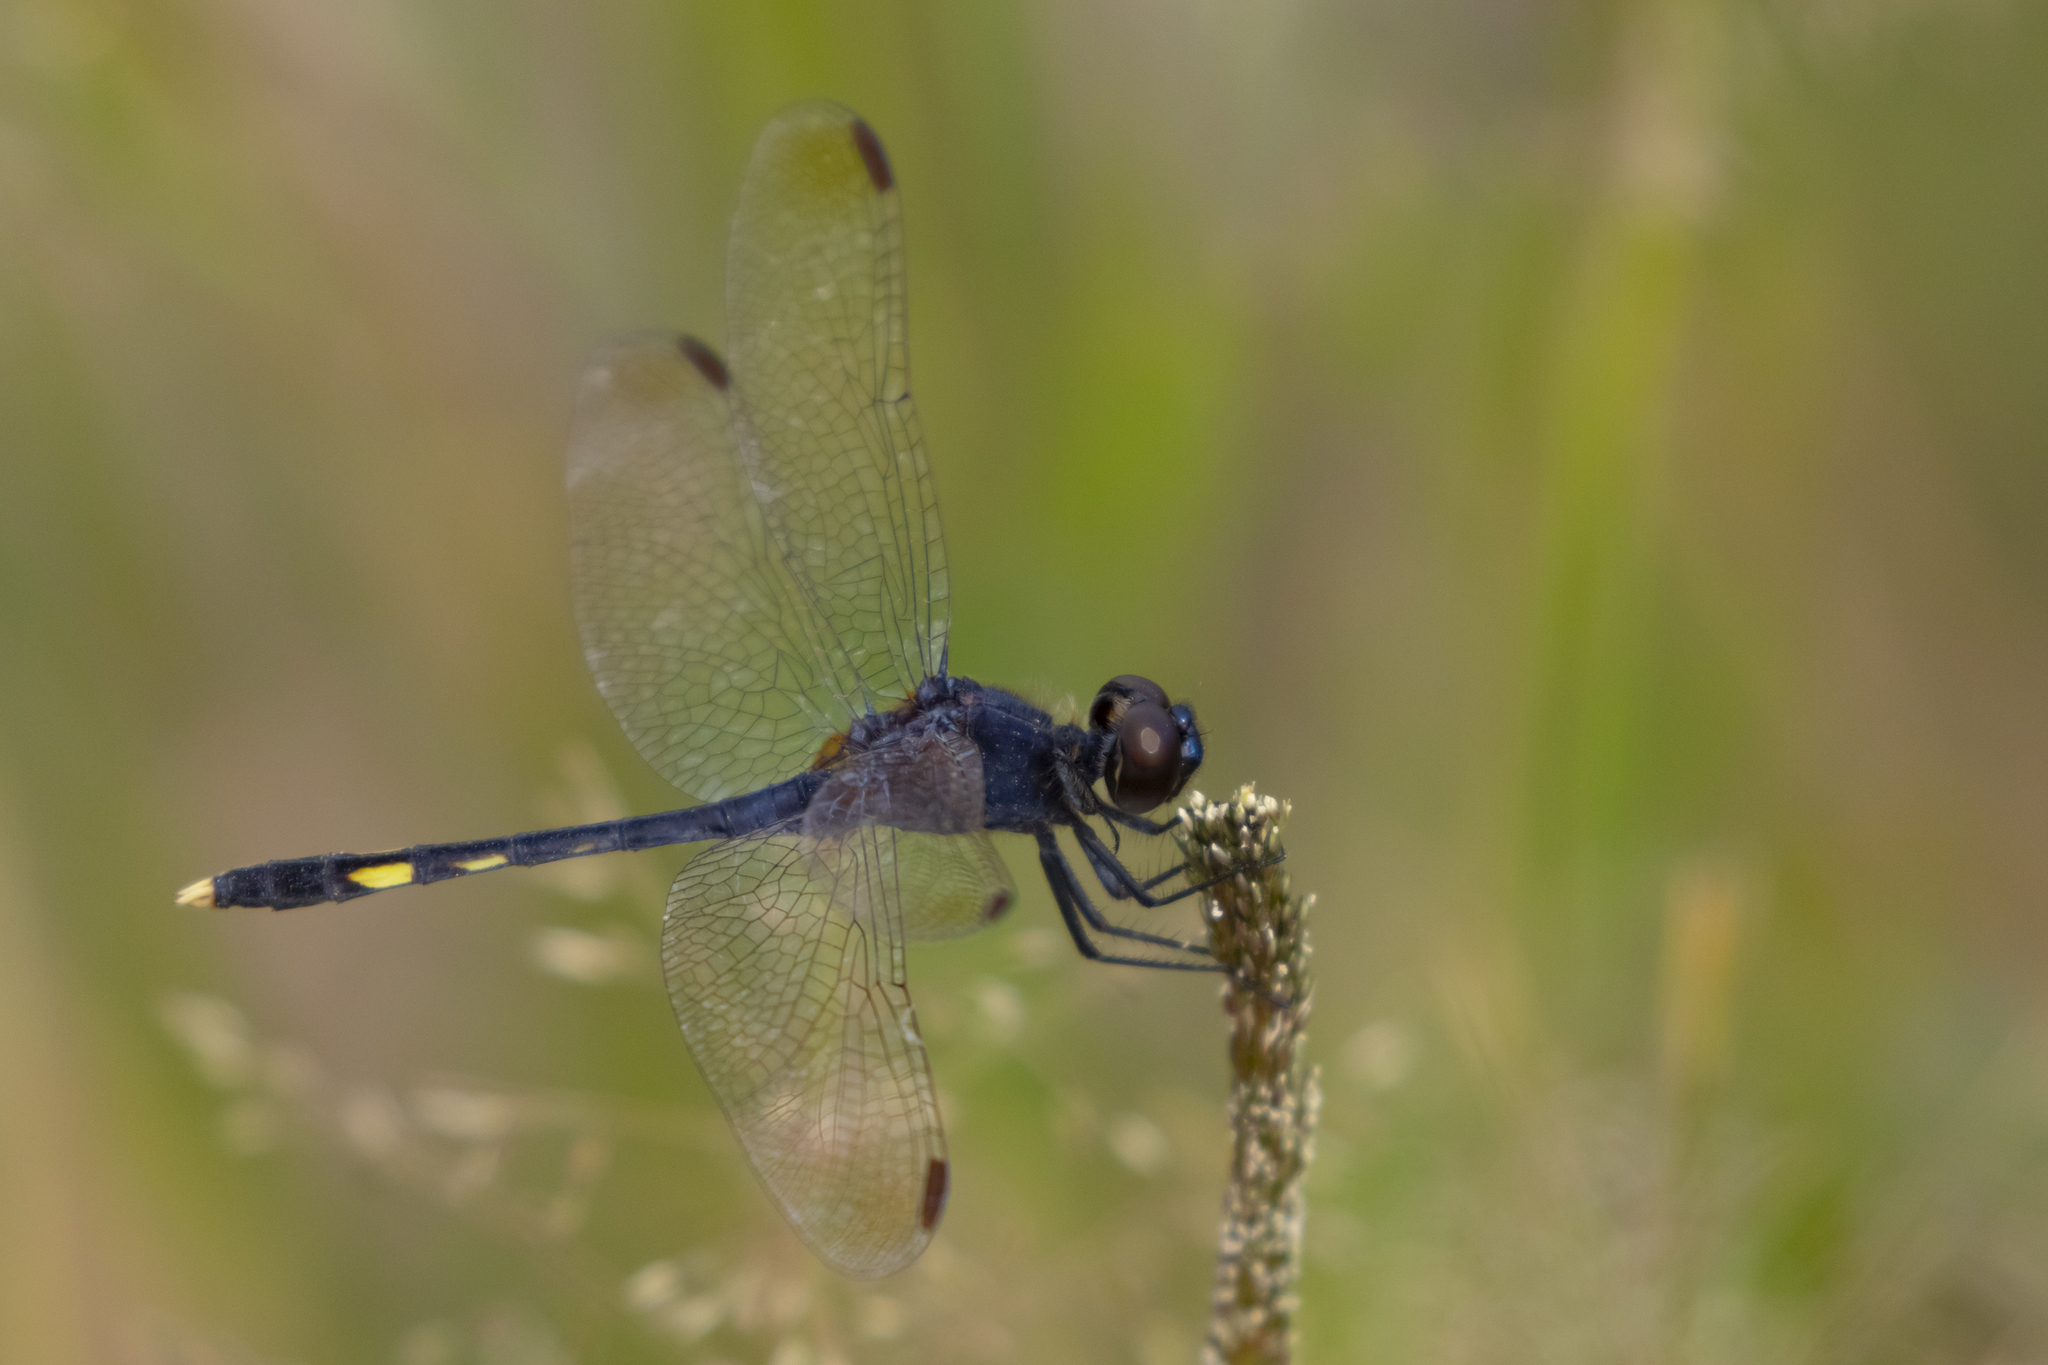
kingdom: Animalia
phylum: Arthropoda
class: Insecta
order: Odonata
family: Libellulidae
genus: Erythrodiplax
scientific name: Erythrodiplax nigricans
